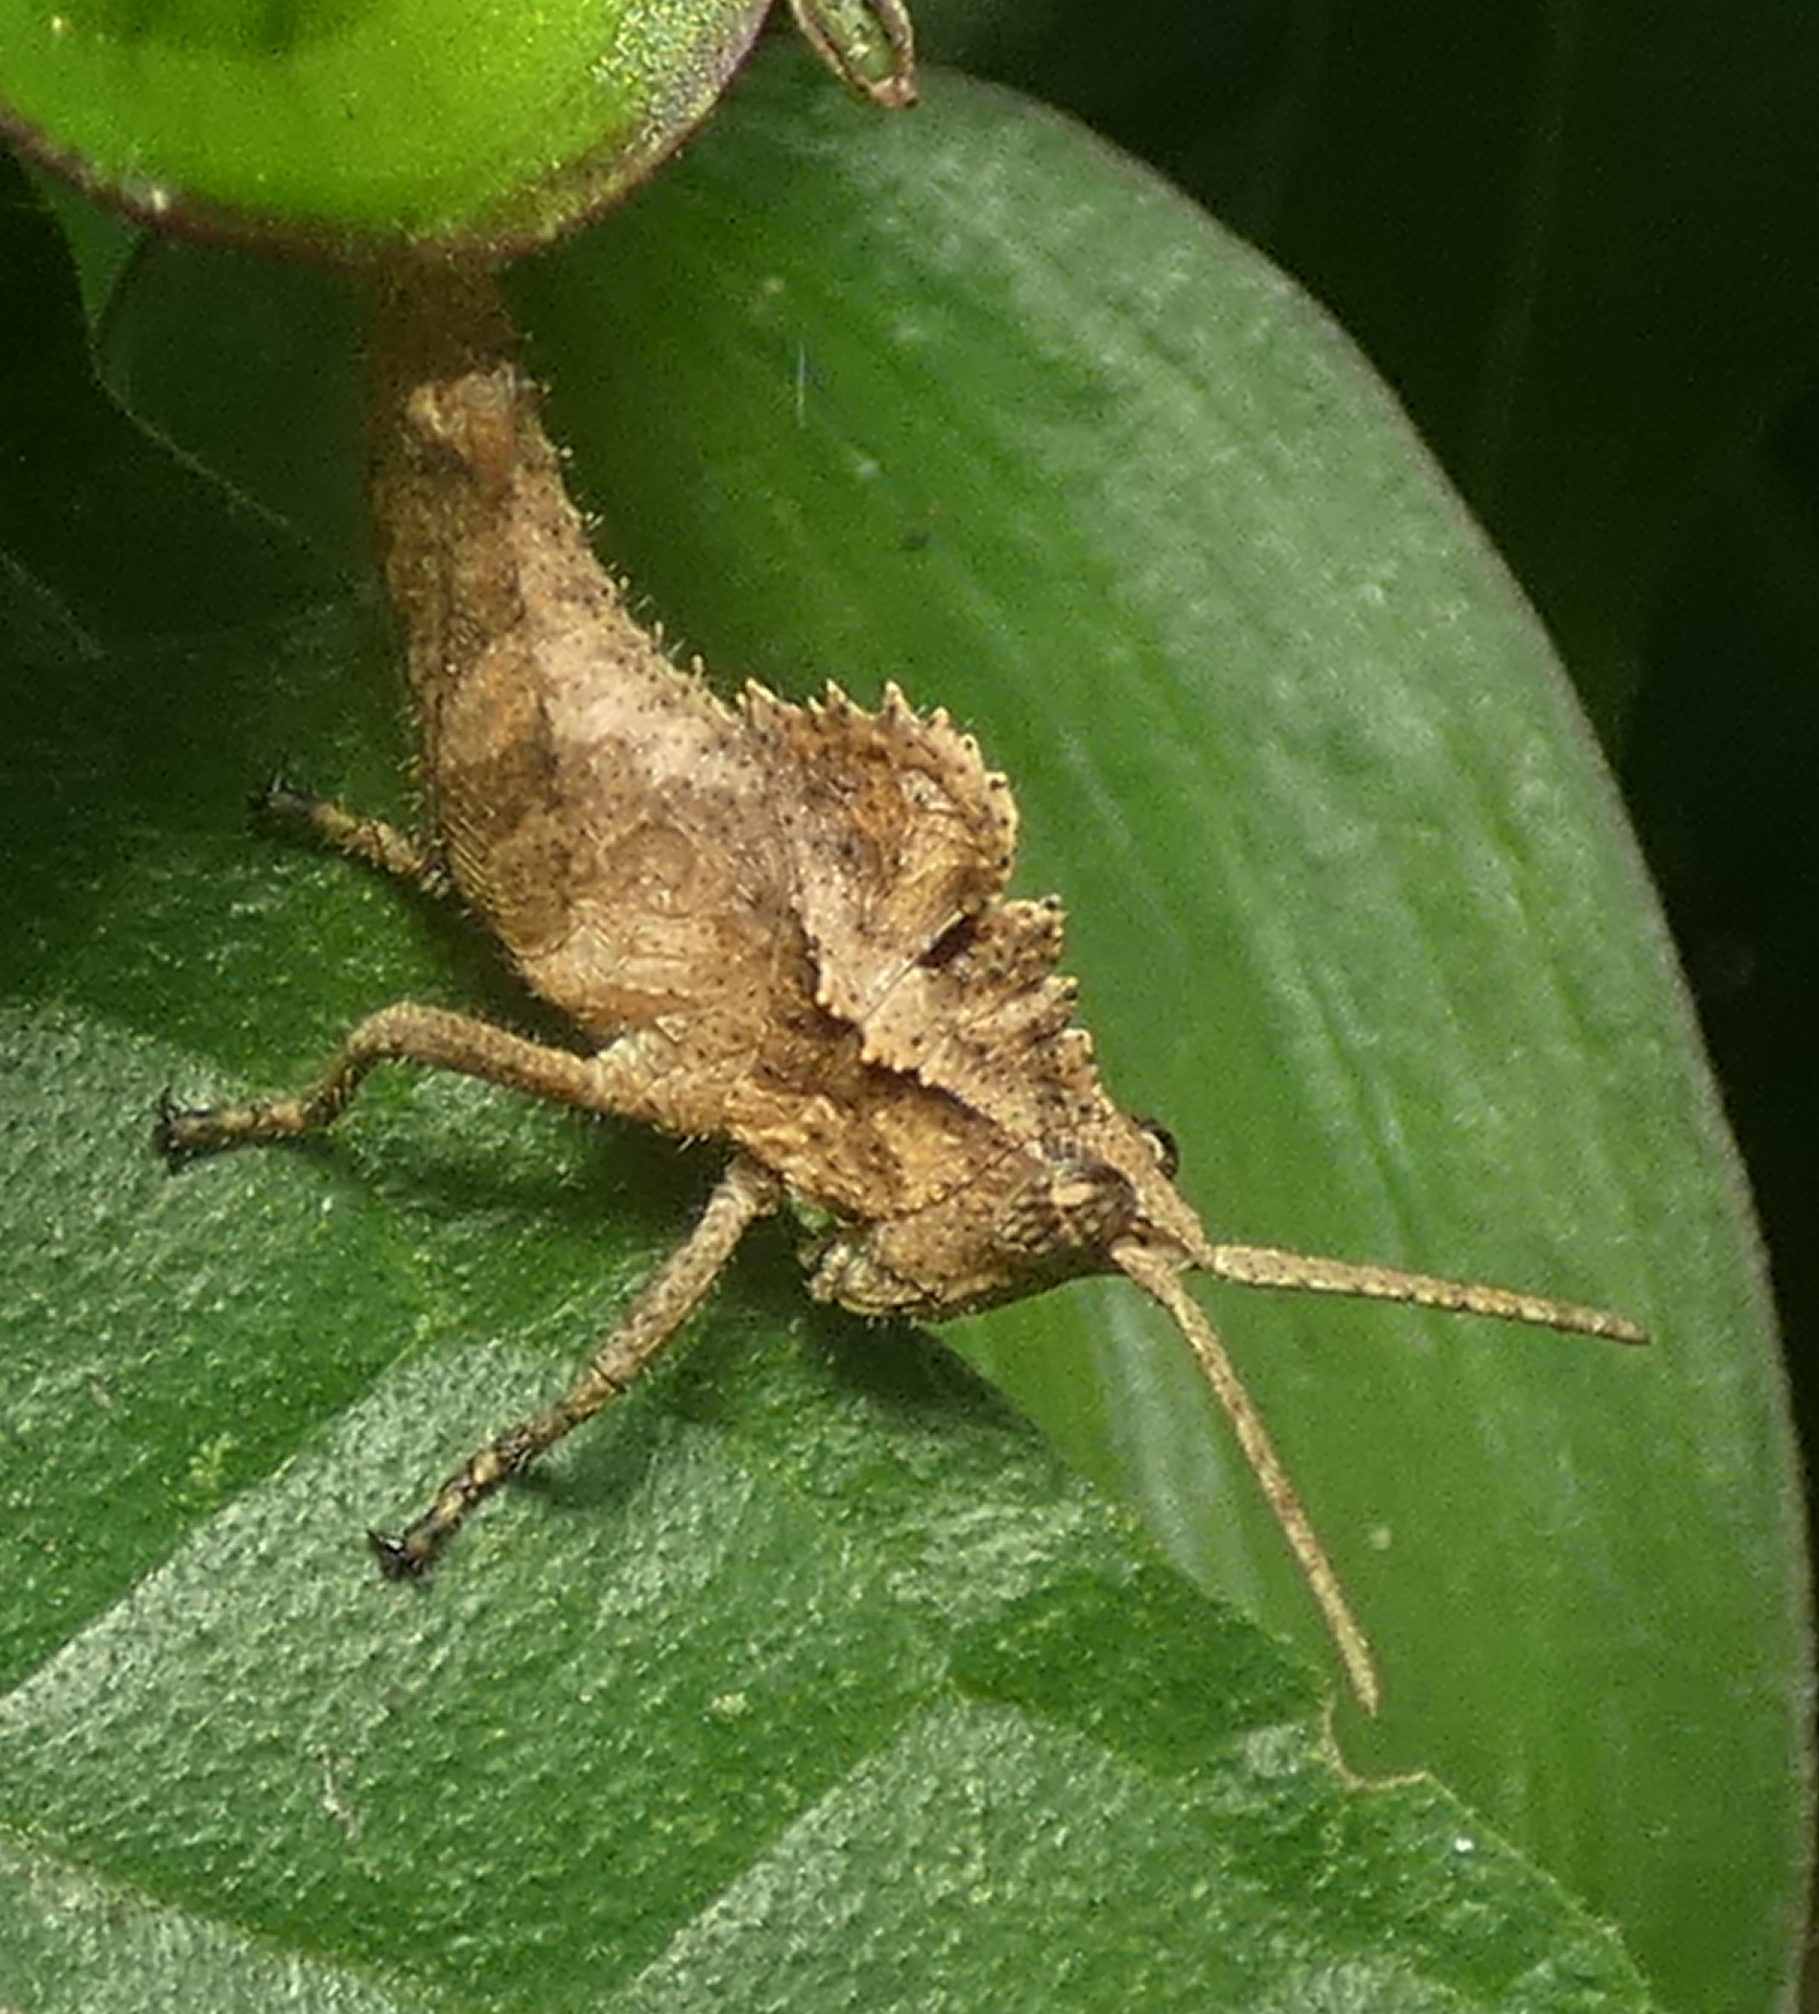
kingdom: Animalia
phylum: Arthropoda
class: Insecta
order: Orthoptera
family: Romaleidae
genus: Helionotus
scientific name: Helionotus mirabilis
